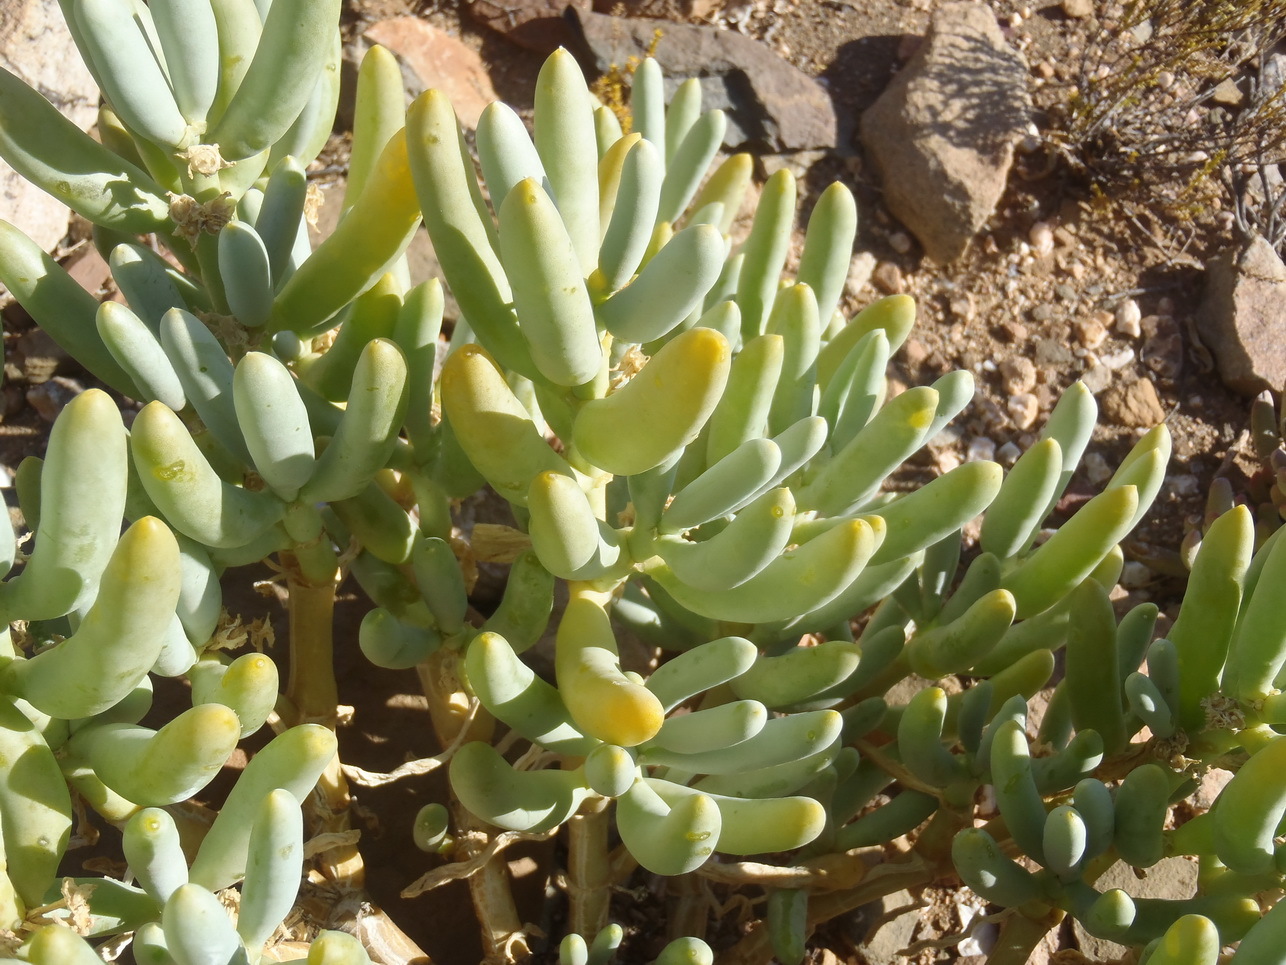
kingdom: Plantae
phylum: Tracheophyta
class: Magnoliopsida
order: Zygophyllales
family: Zygophyllaceae
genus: Augea
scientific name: Augea capensis
